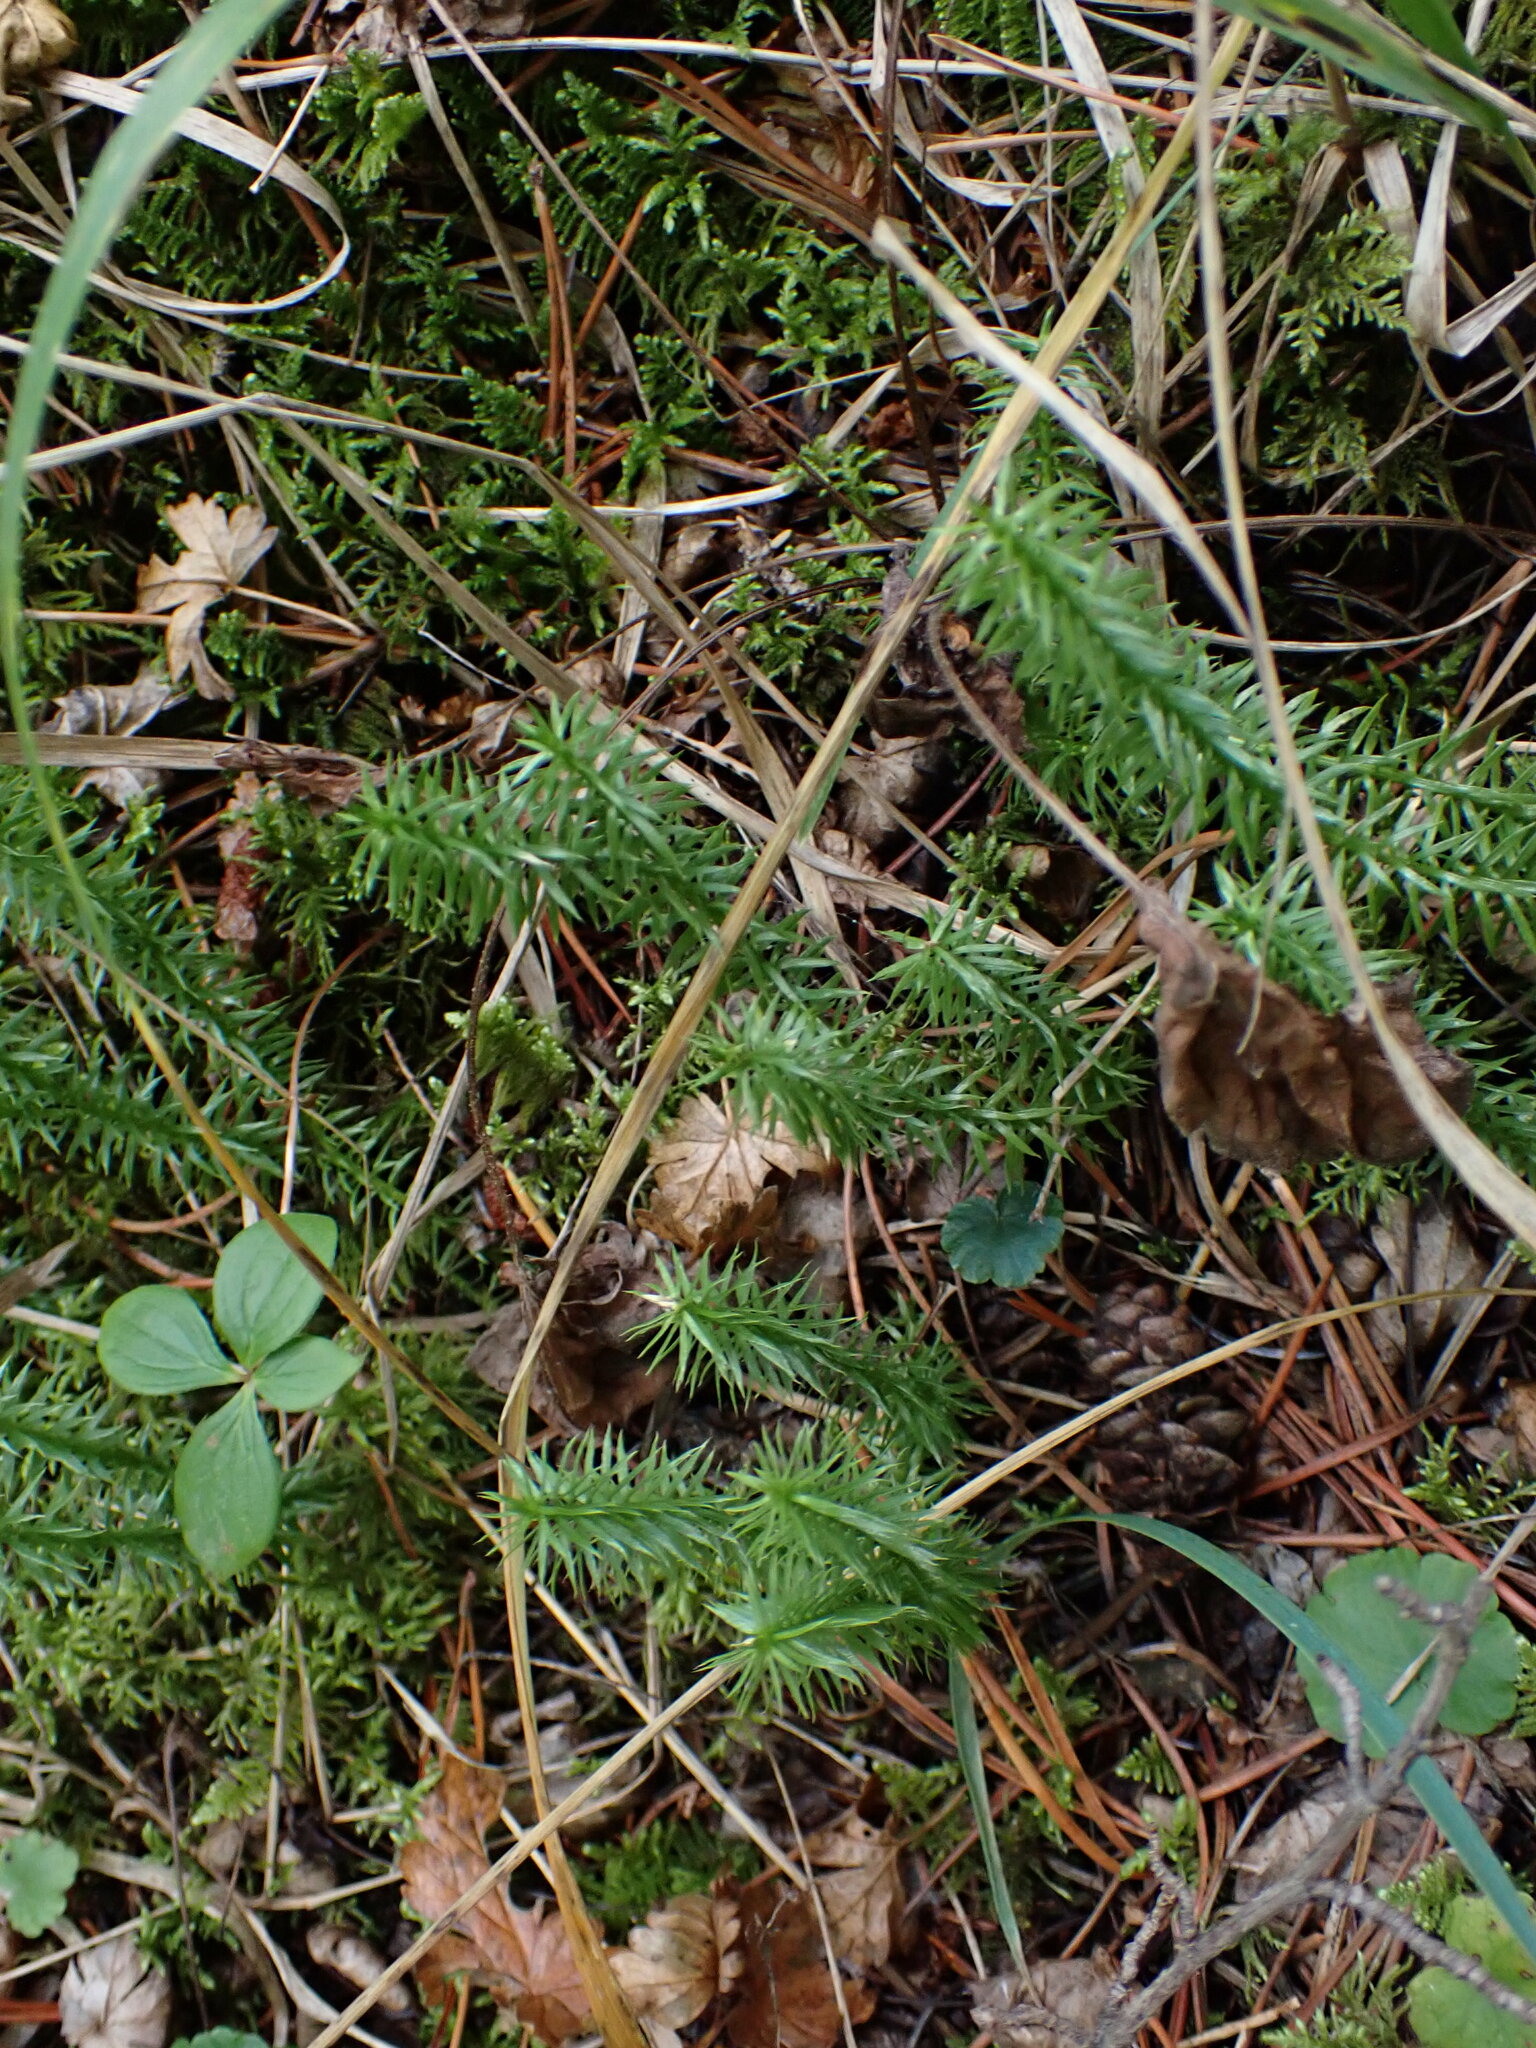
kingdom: Plantae
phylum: Tracheophyta
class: Lycopodiopsida
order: Lycopodiales
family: Lycopodiaceae
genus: Spinulum
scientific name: Spinulum annotinum
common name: Interrupted club-moss
